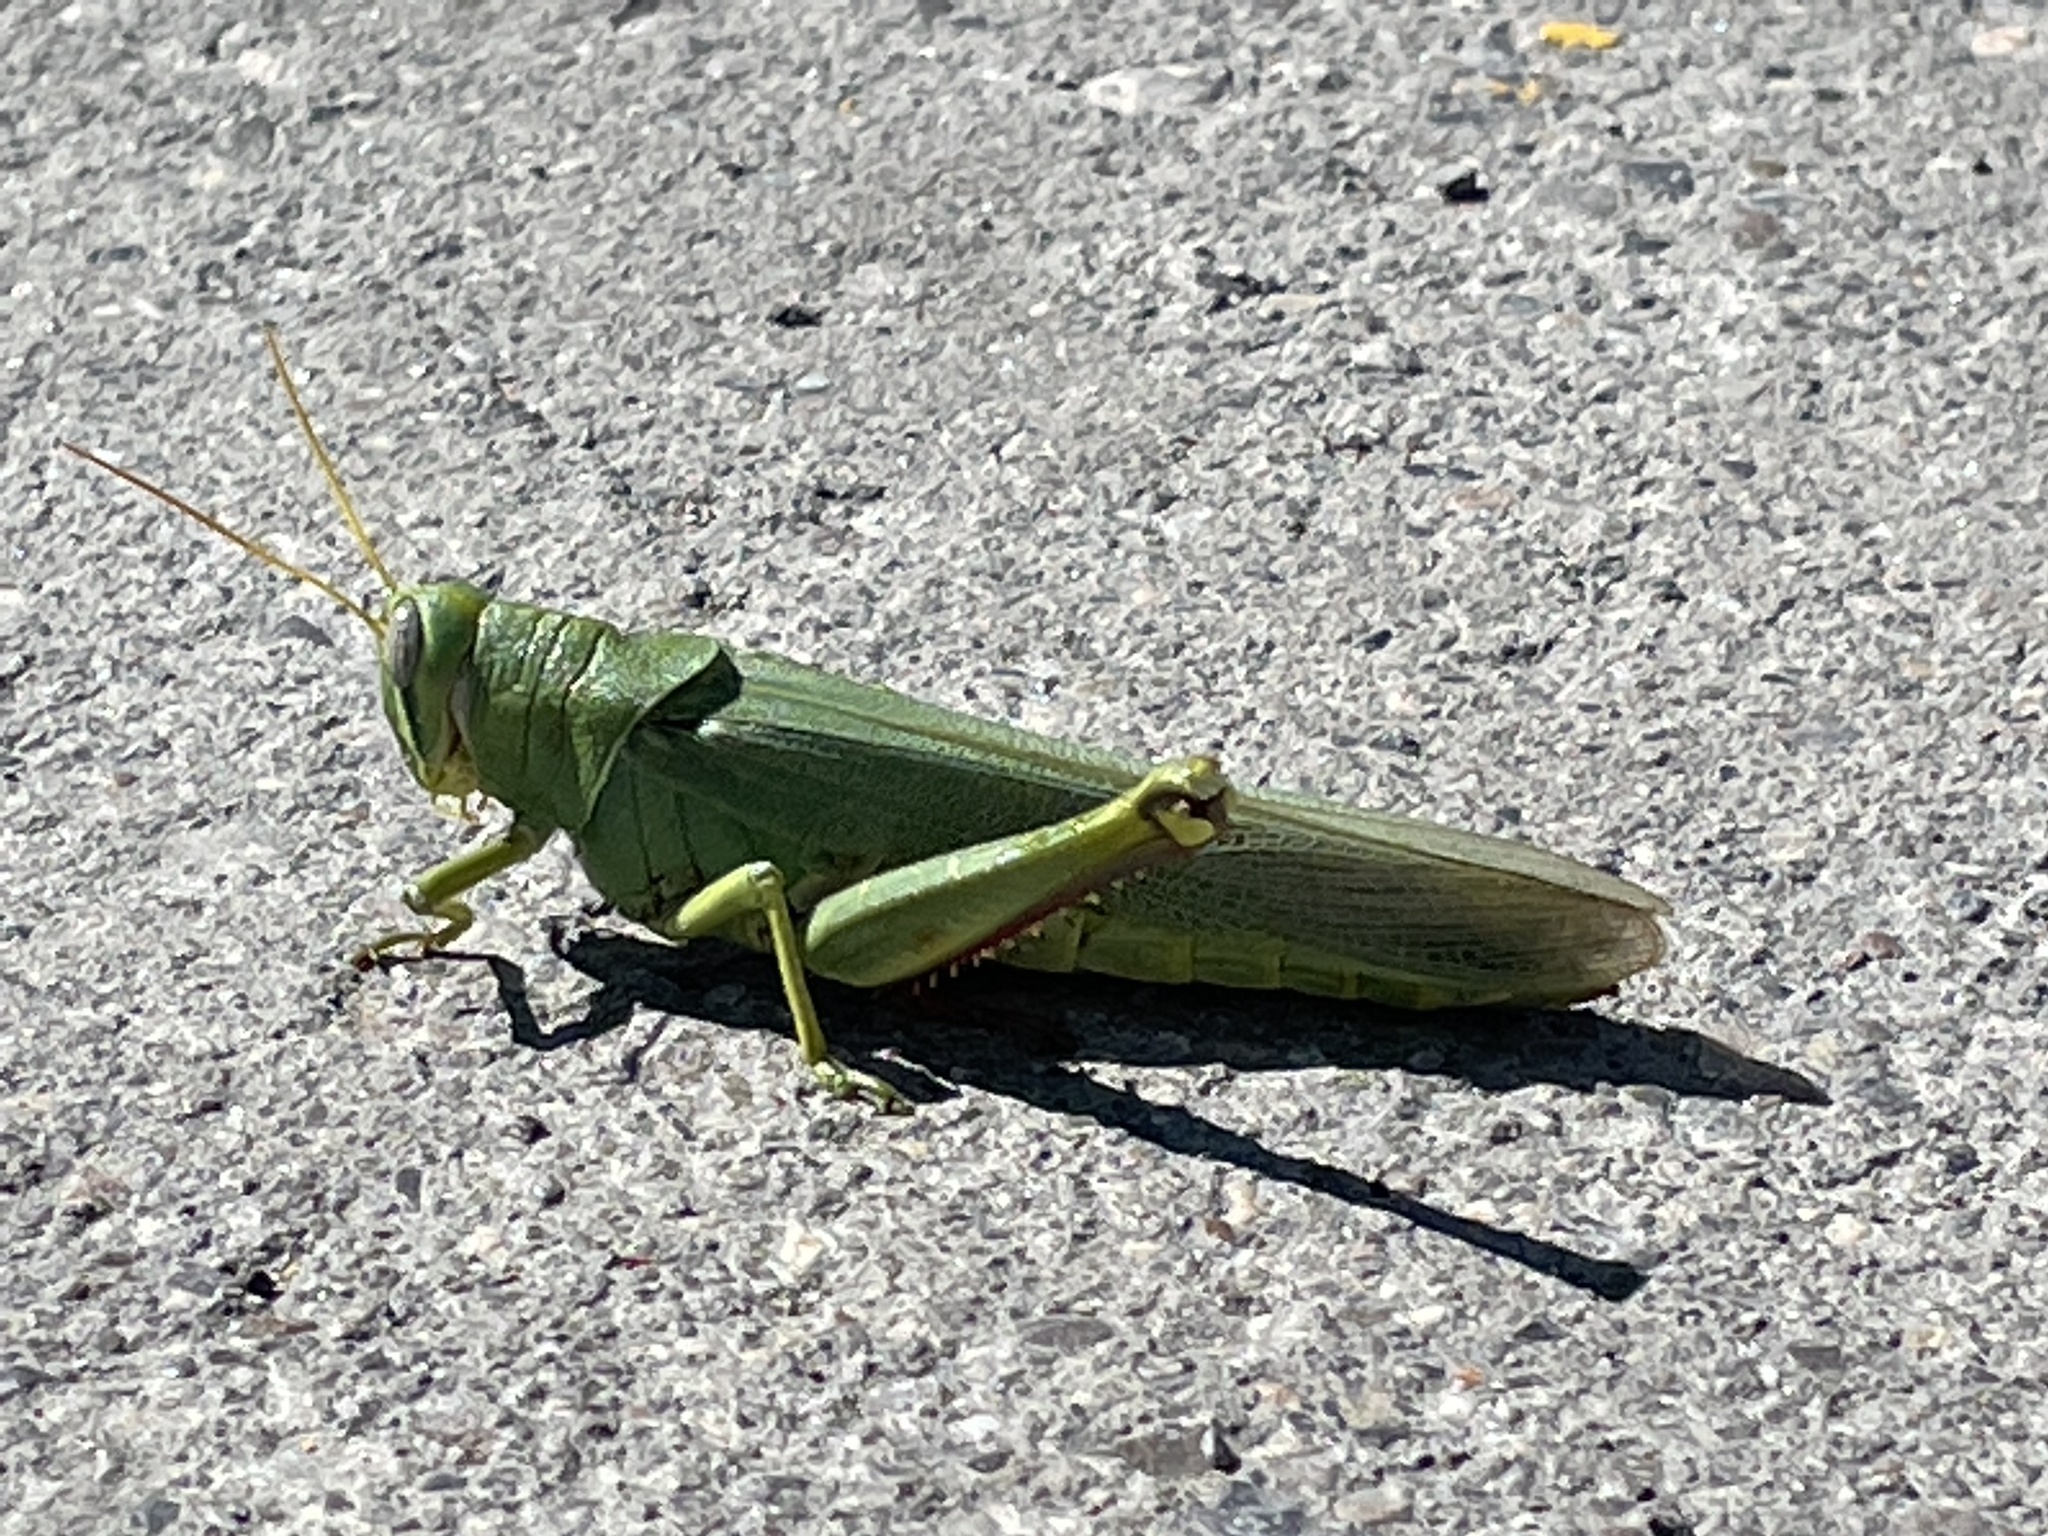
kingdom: Animalia
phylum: Arthropoda
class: Insecta
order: Orthoptera
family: Acrididae
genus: Schistocerca
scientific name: Schistocerca shoshone
